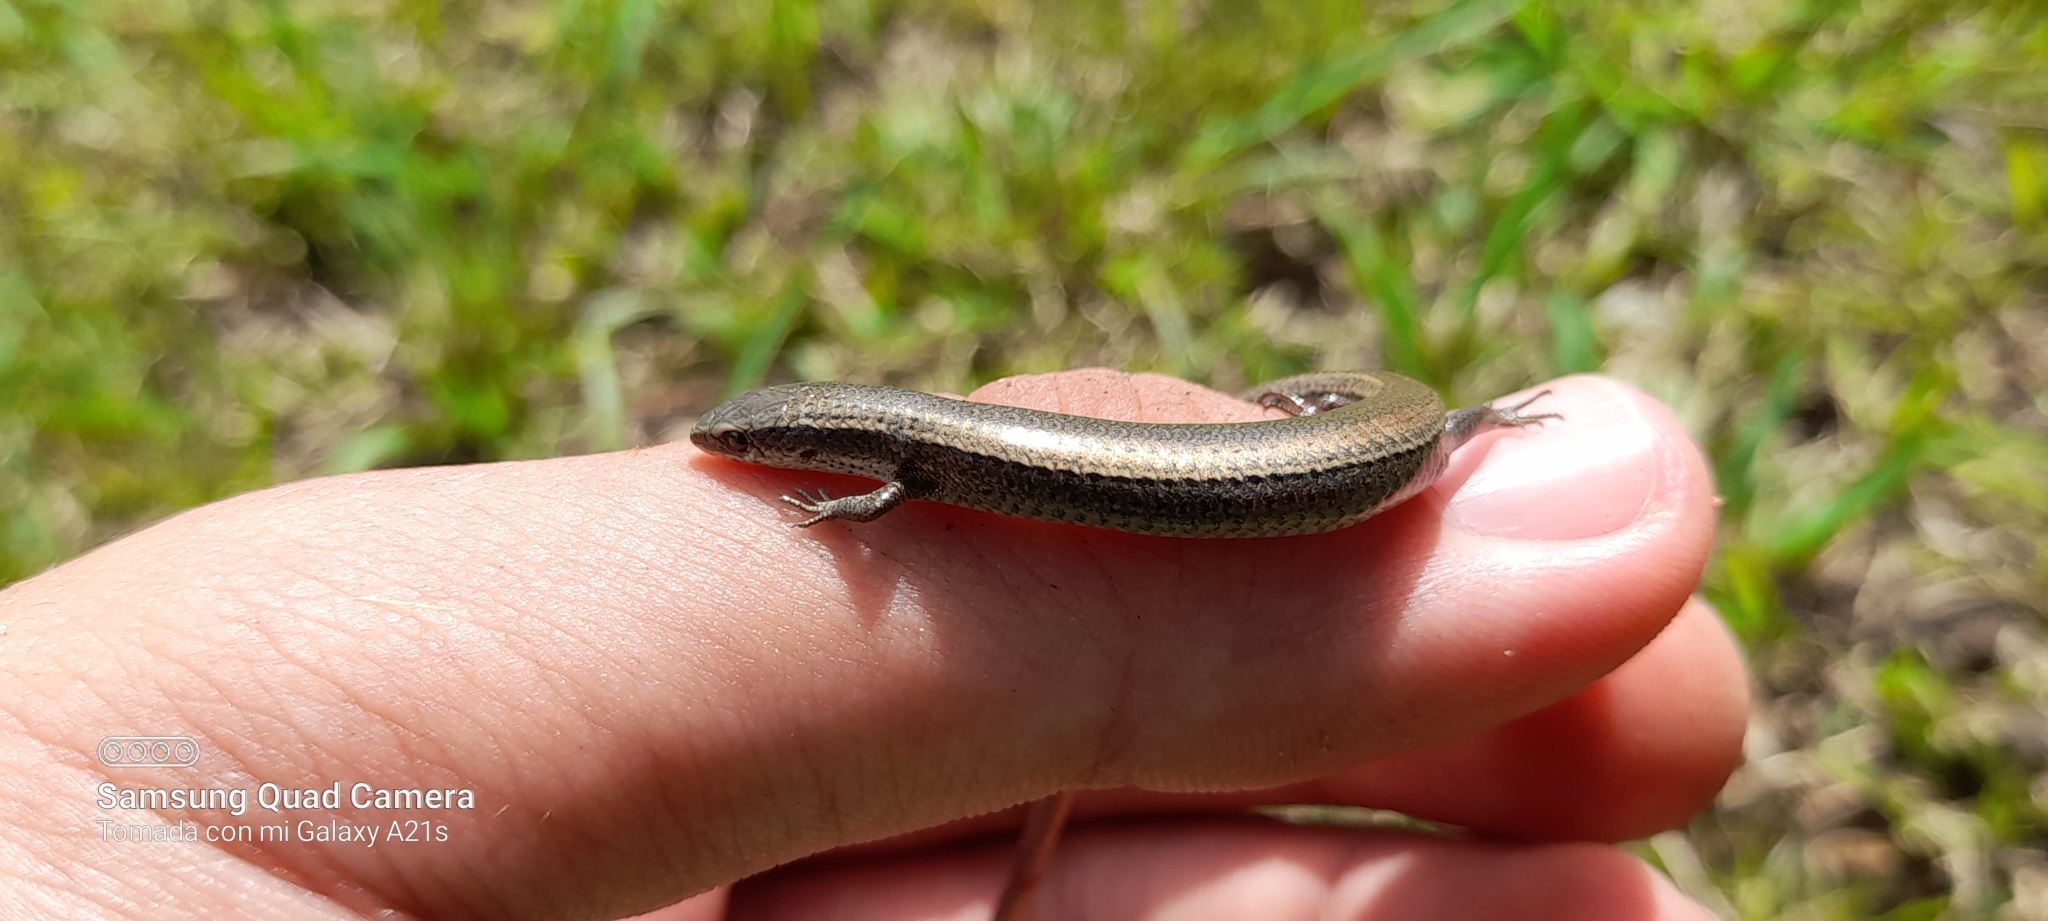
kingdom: Animalia
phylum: Chordata
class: Squamata
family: Gymnophthalmidae
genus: Gymnophthalmus
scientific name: Gymnophthalmus speciosus
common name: Golden spectacled tegu
